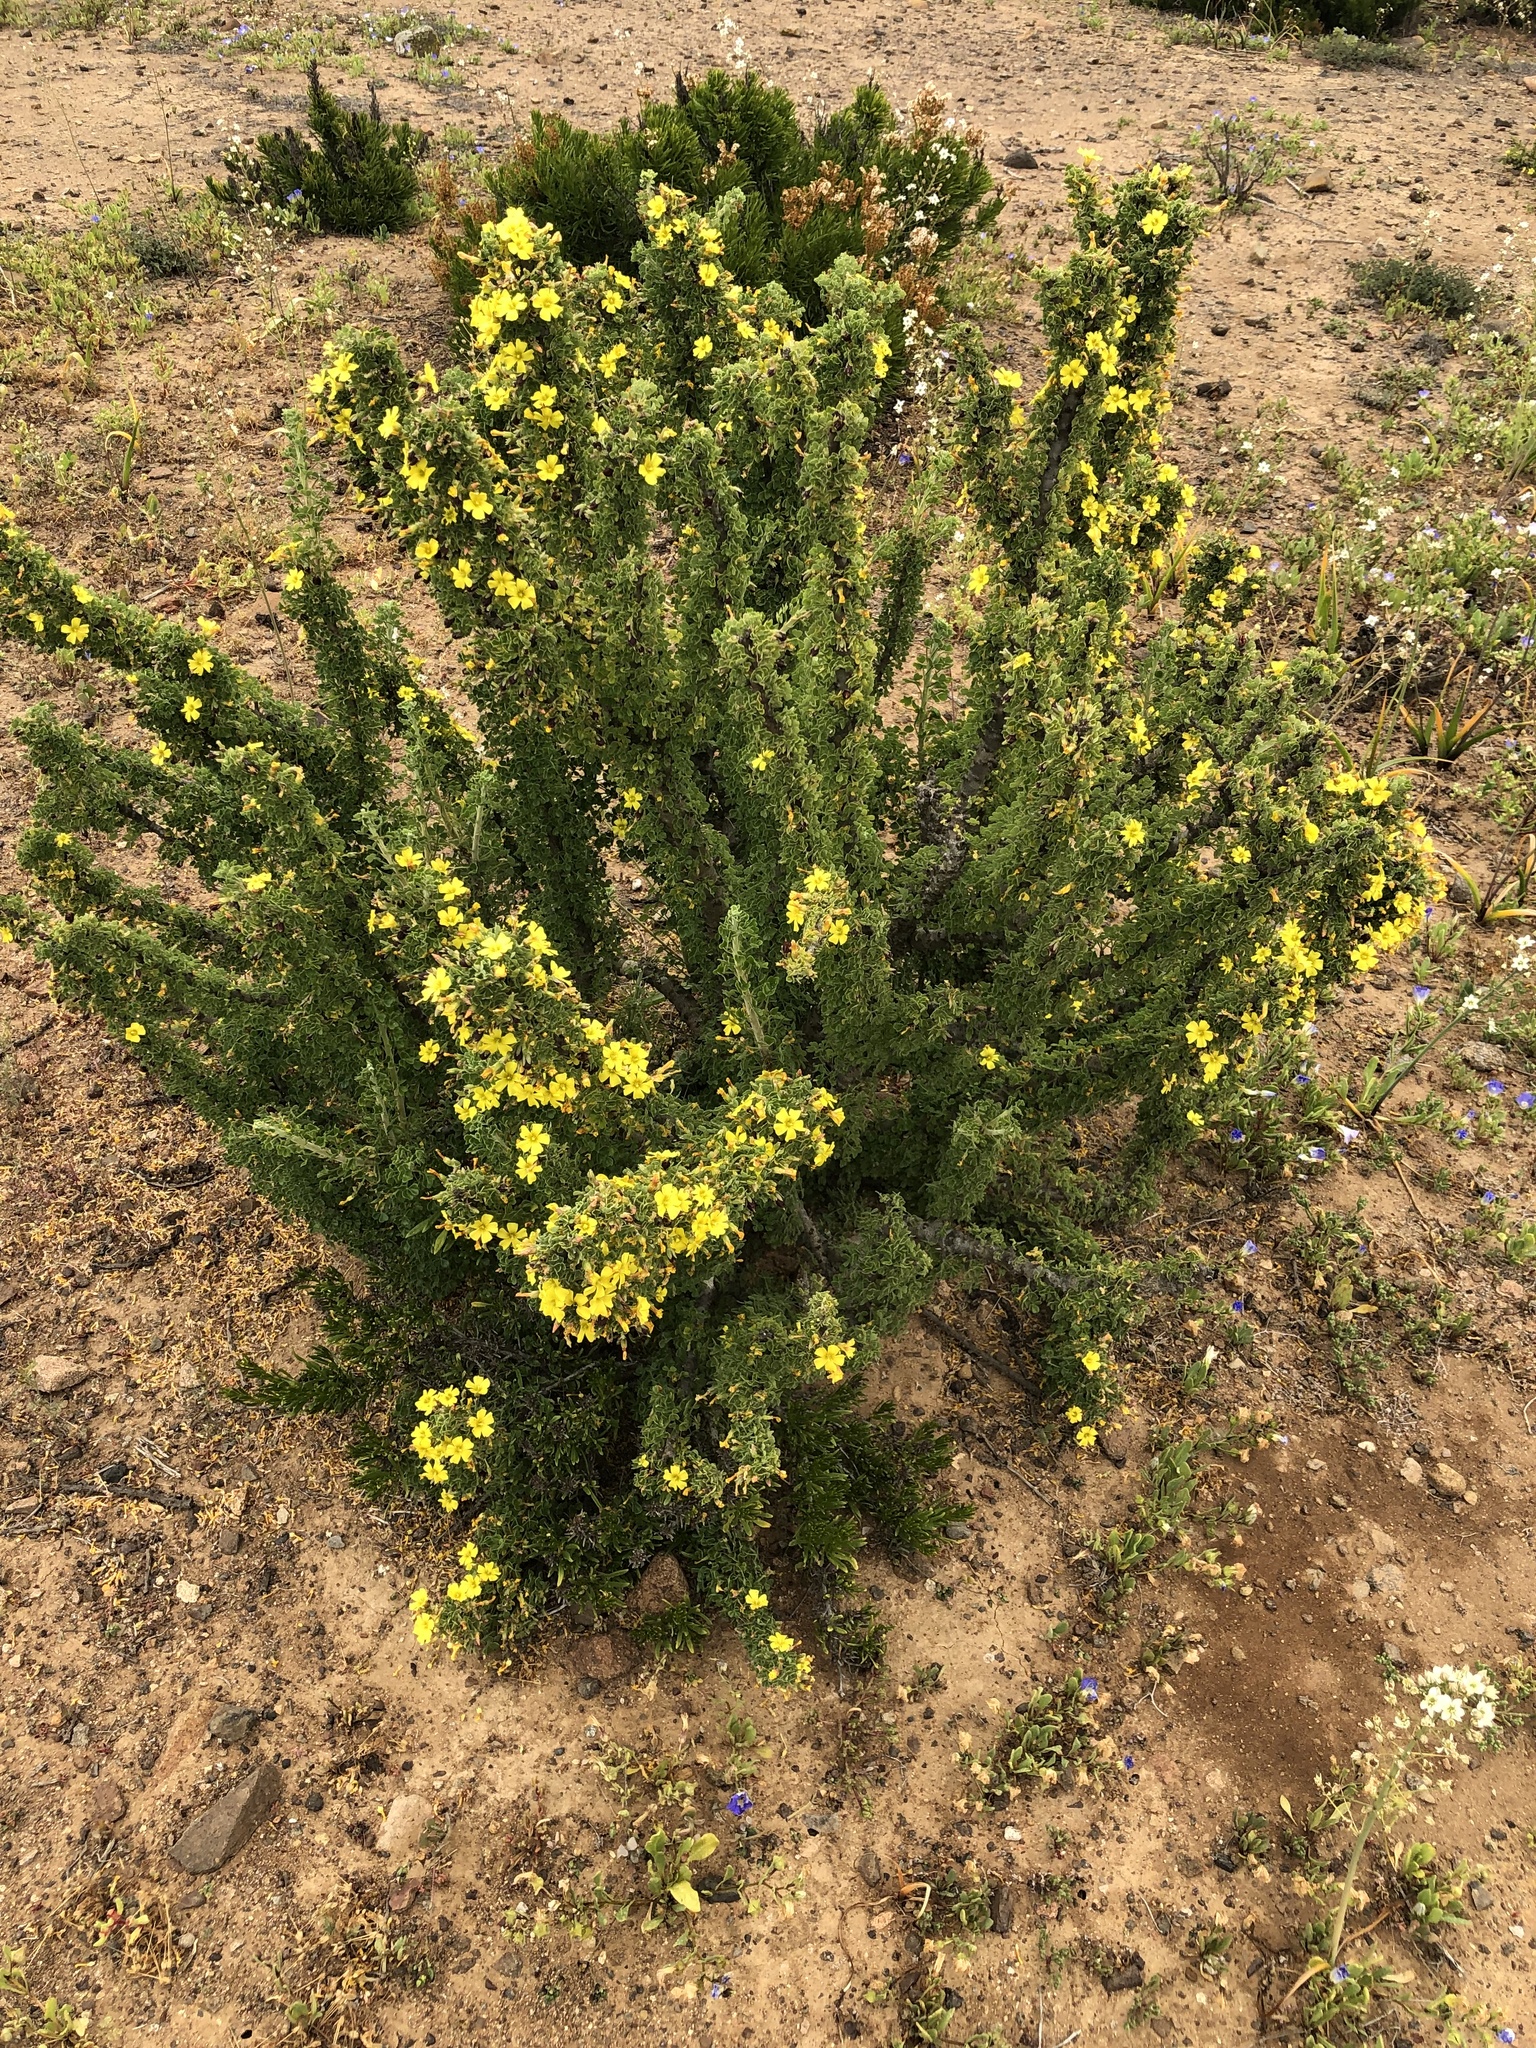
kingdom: Plantae
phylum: Tracheophyta
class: Magnoliopsida
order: Oxalidales
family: Oxalidaceae
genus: Oxalis
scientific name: Oxalis gigantea
